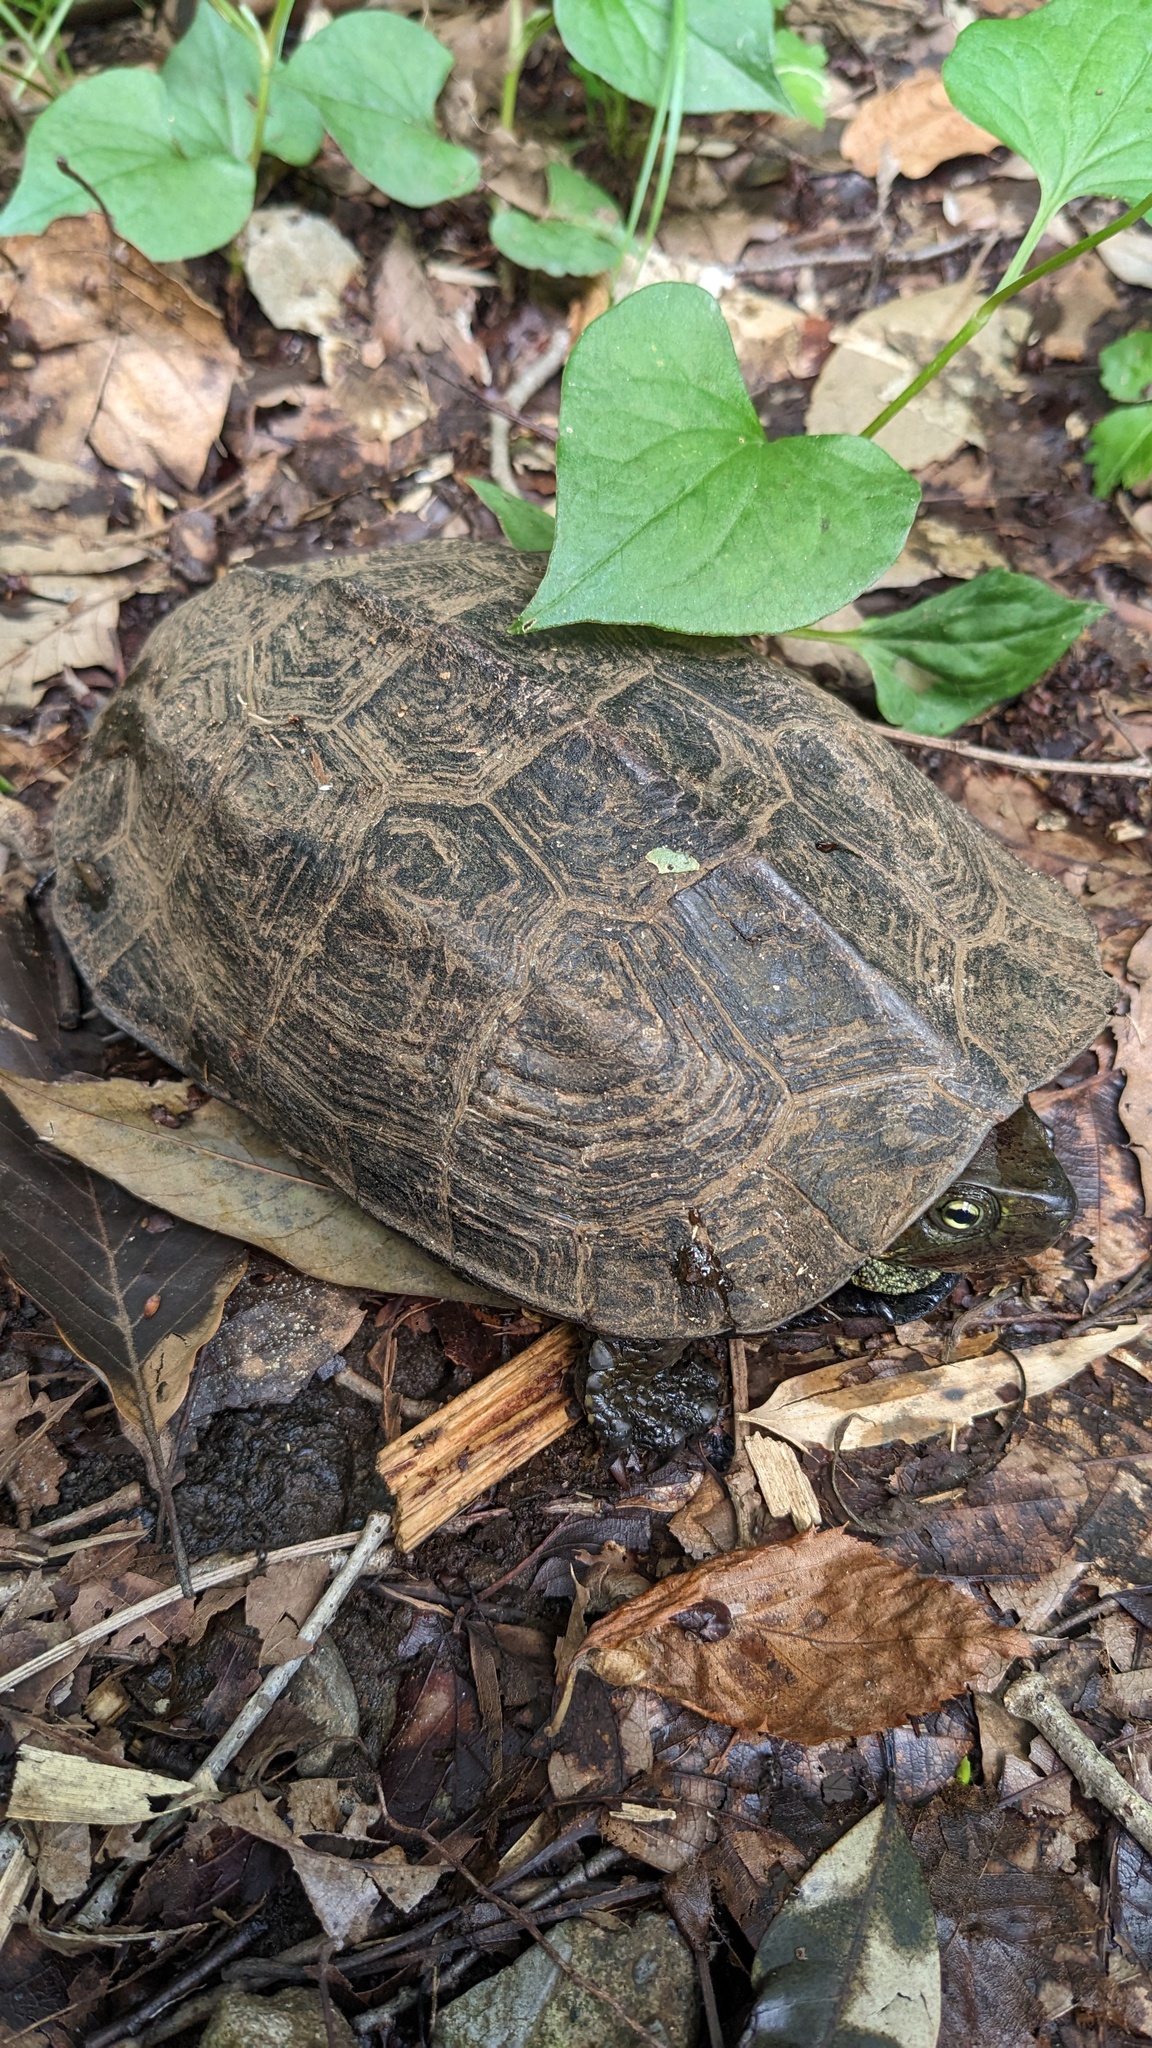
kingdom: Animalia
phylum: Chordata
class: Testudines
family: Geoemydidae
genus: Mauremys
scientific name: Mauremys reevesii
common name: Chinese pond turtle
